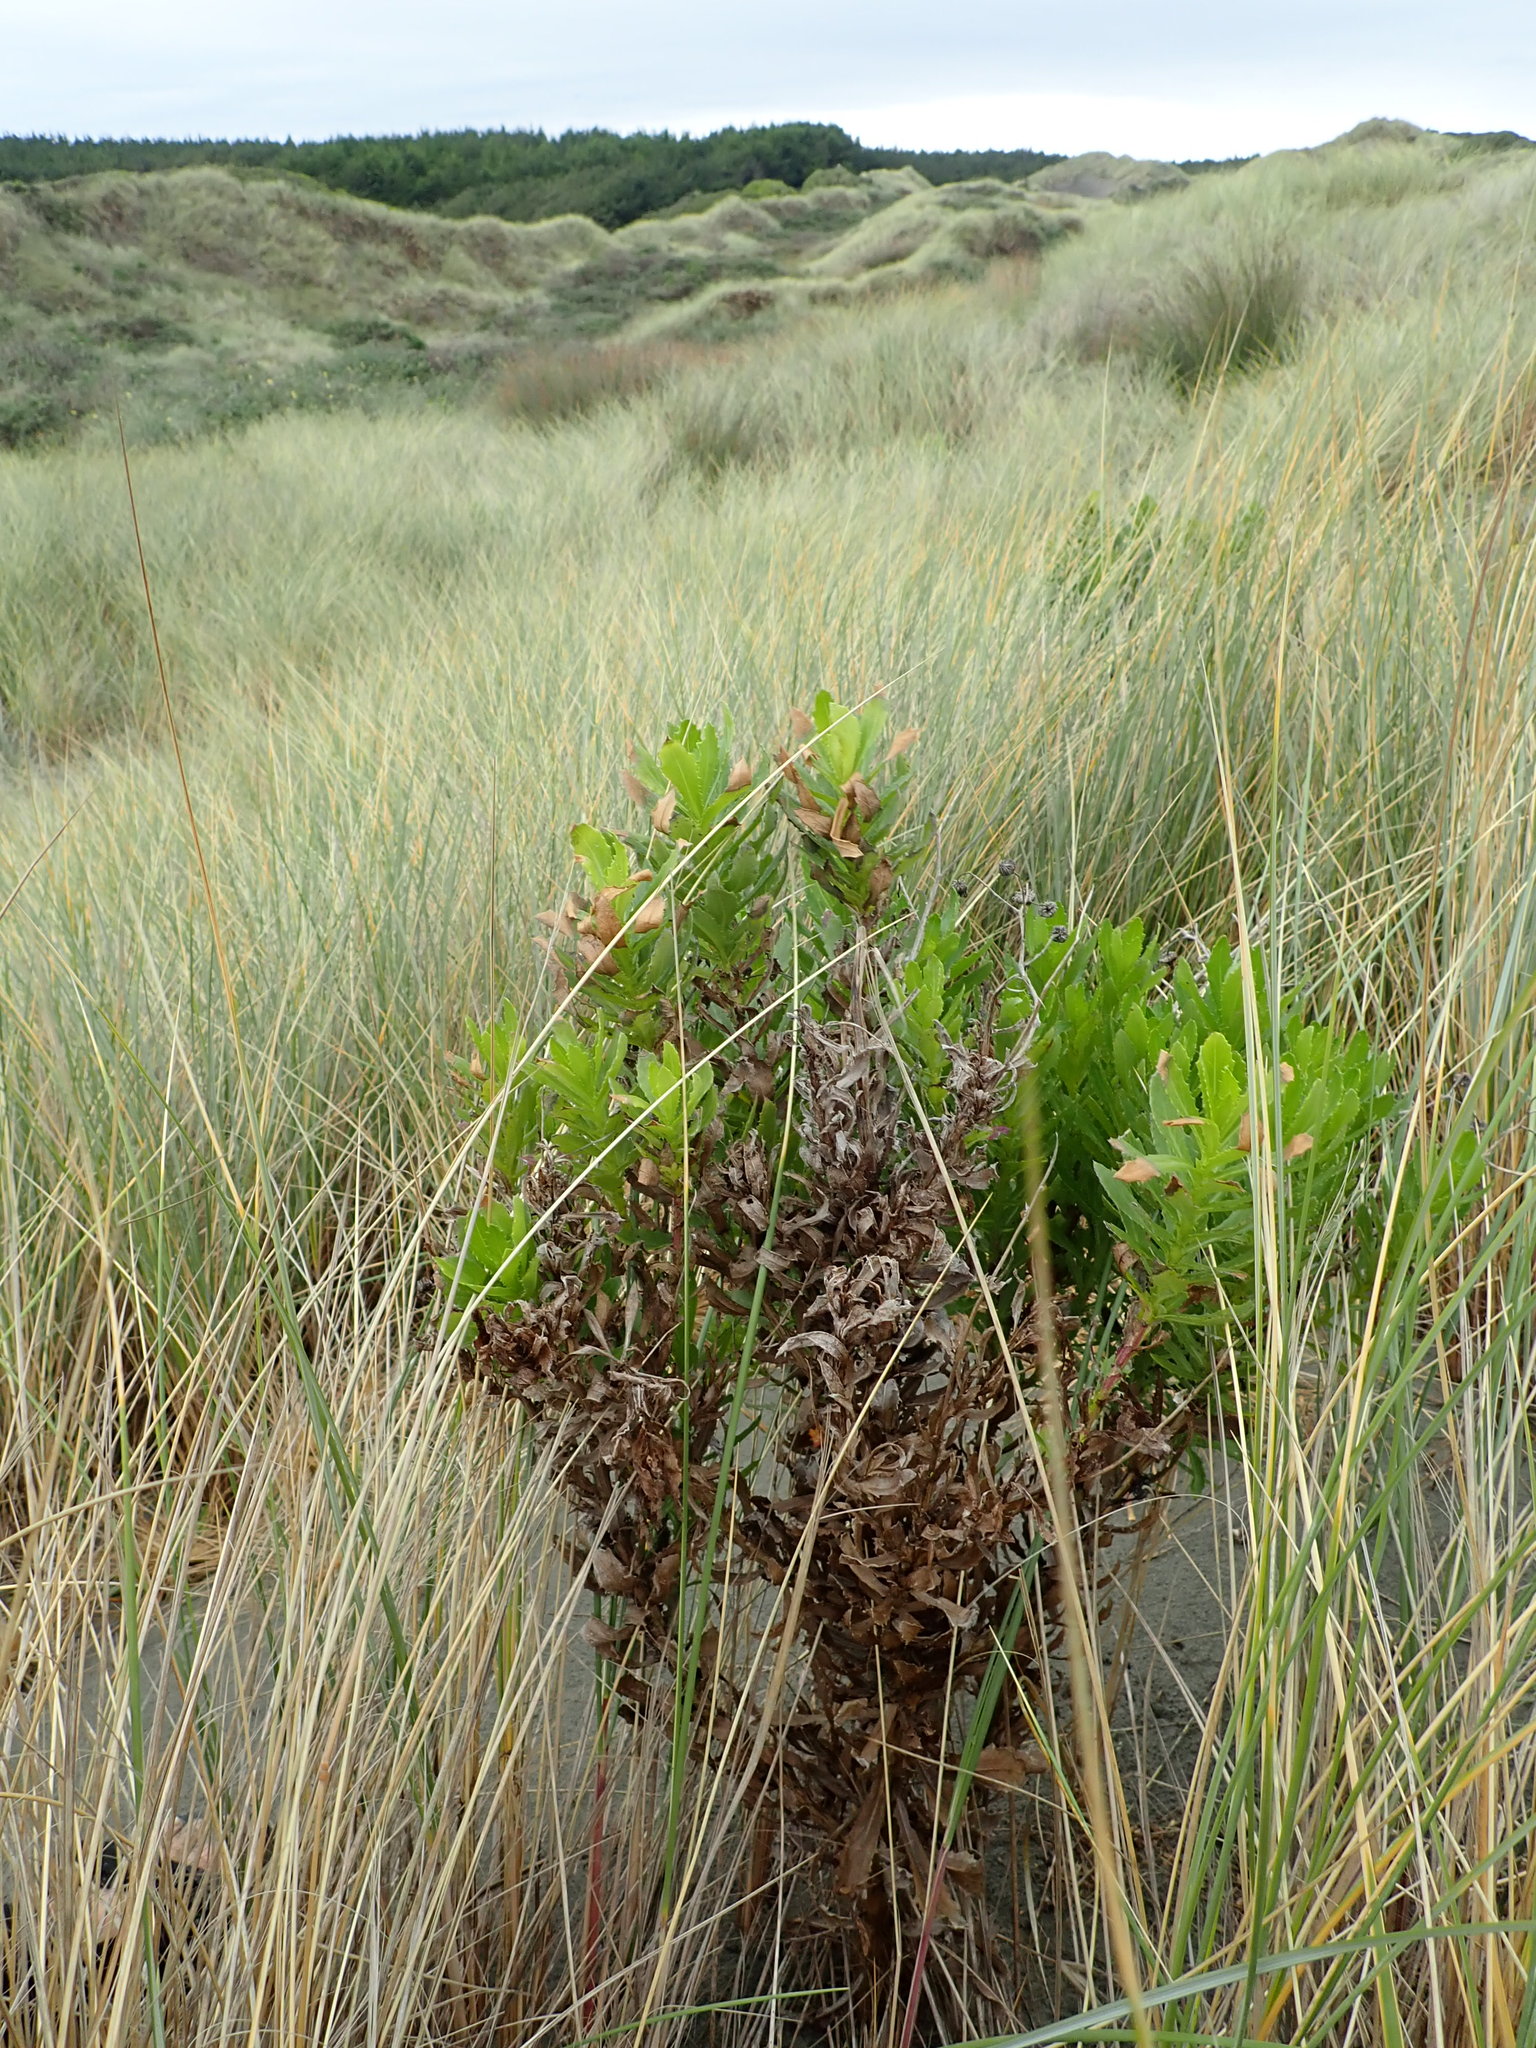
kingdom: Plantae
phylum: Tracheophyta
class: Magnoliopsida
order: Asterales
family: Asteraceae
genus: Senecio
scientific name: Senecio glastifolius
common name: Woad-leaved ragwort
